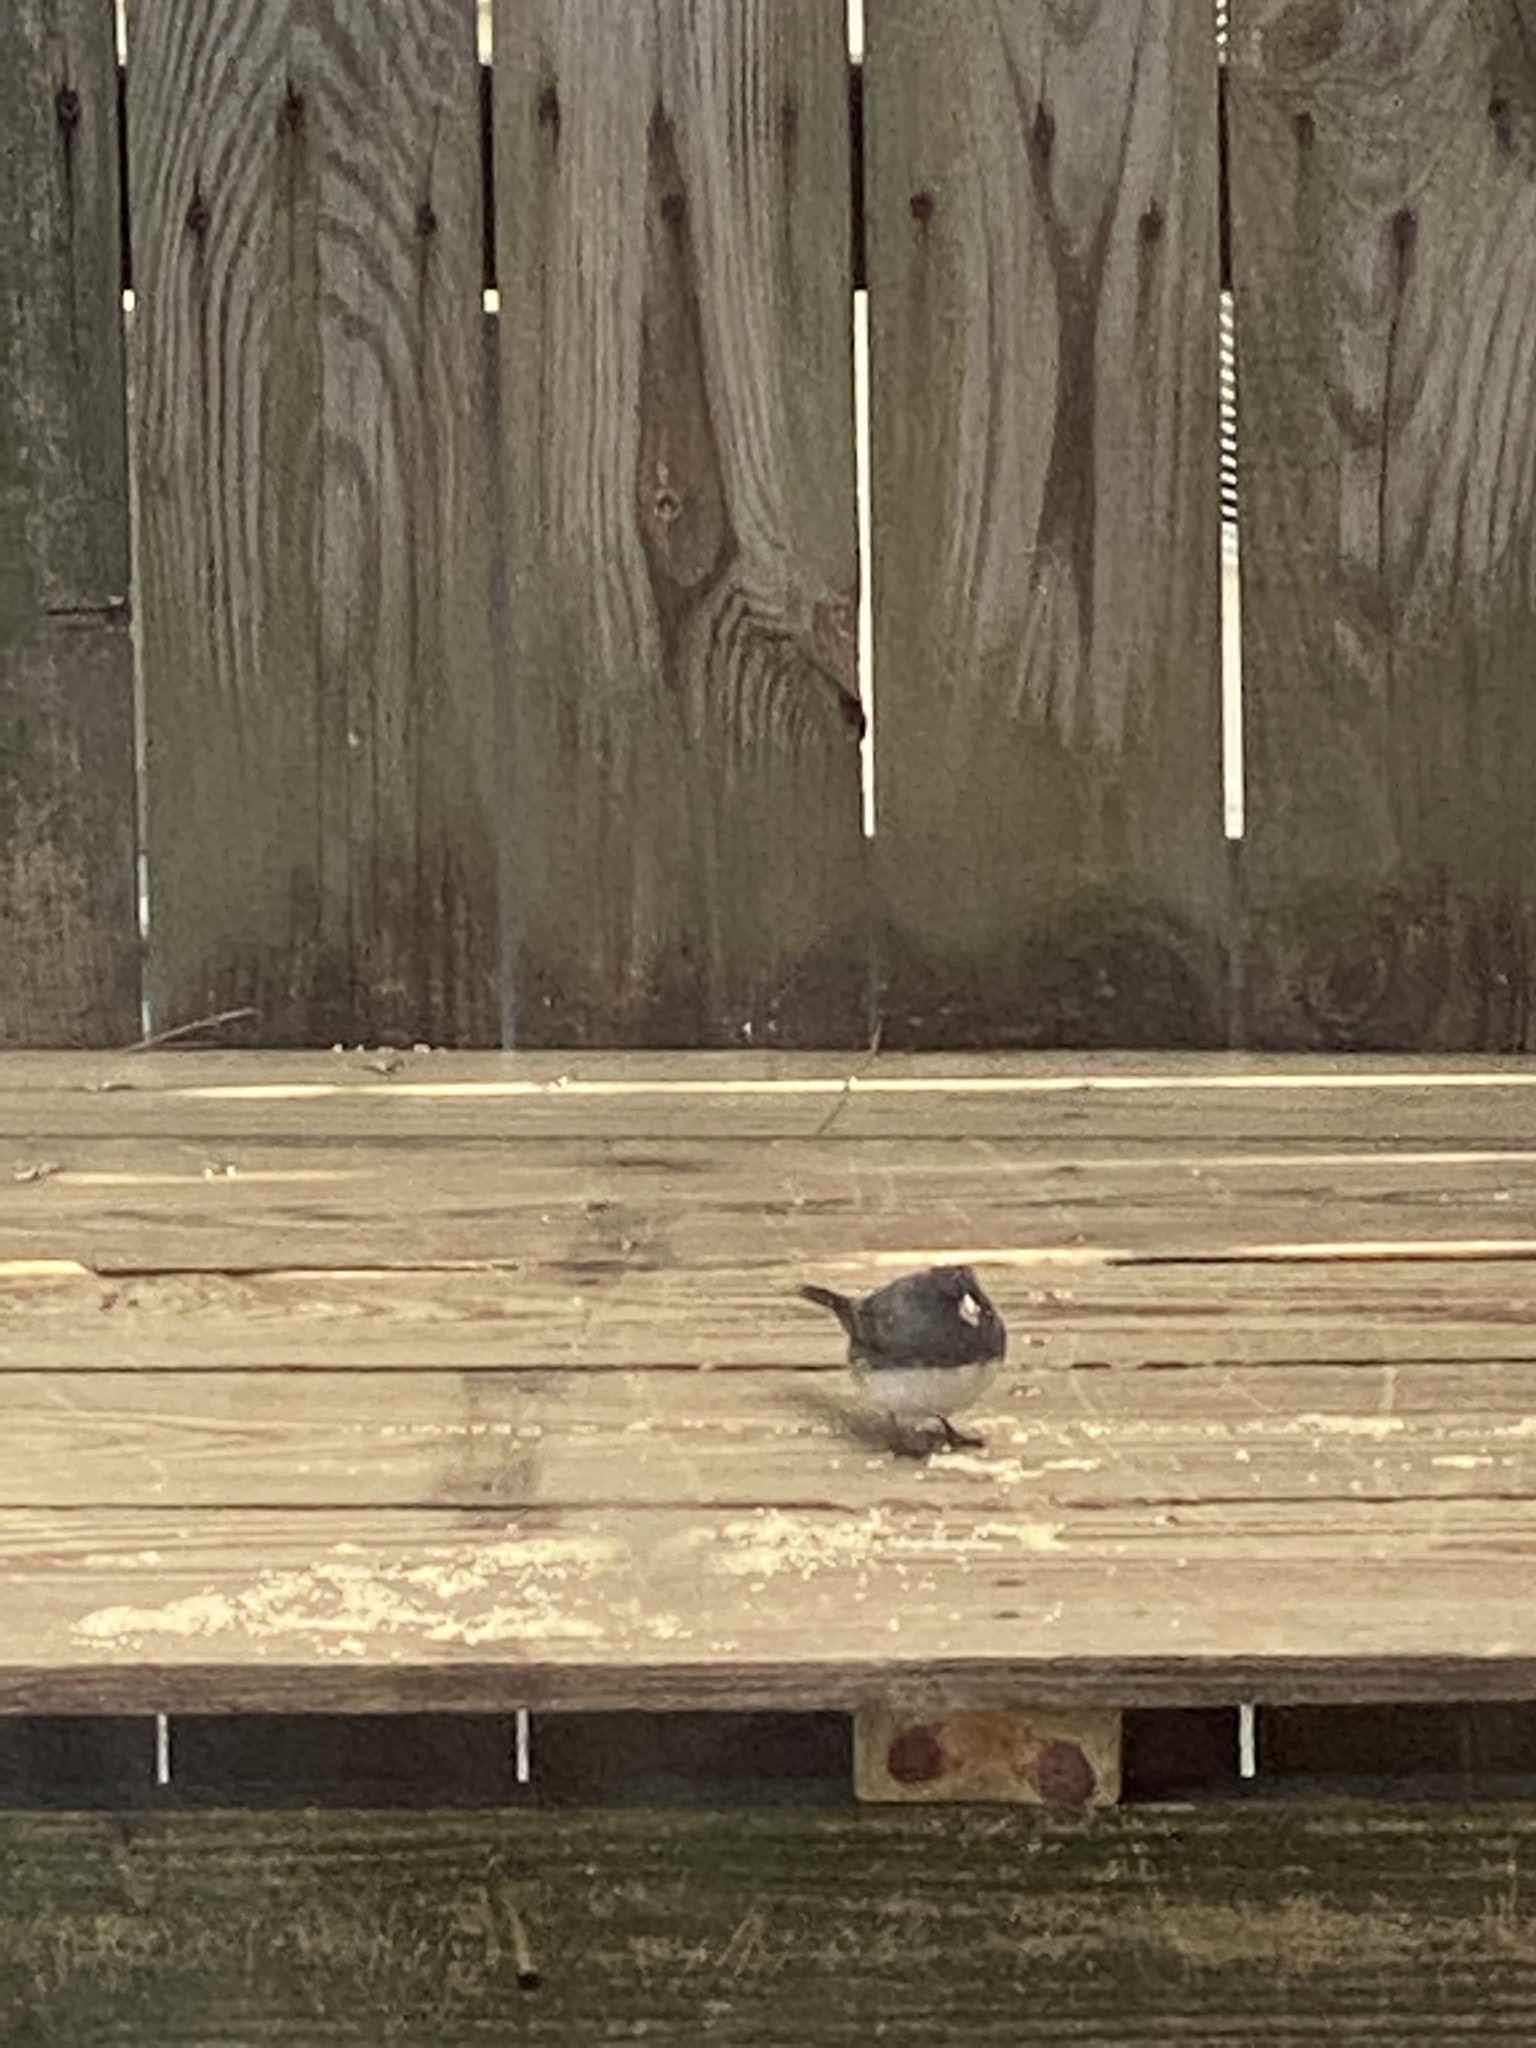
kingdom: Animalia
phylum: Chordata
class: Aves
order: Passeriformes
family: Passerellidae
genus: Junco
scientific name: Junco hyemalis
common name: Dark-eyed junco
